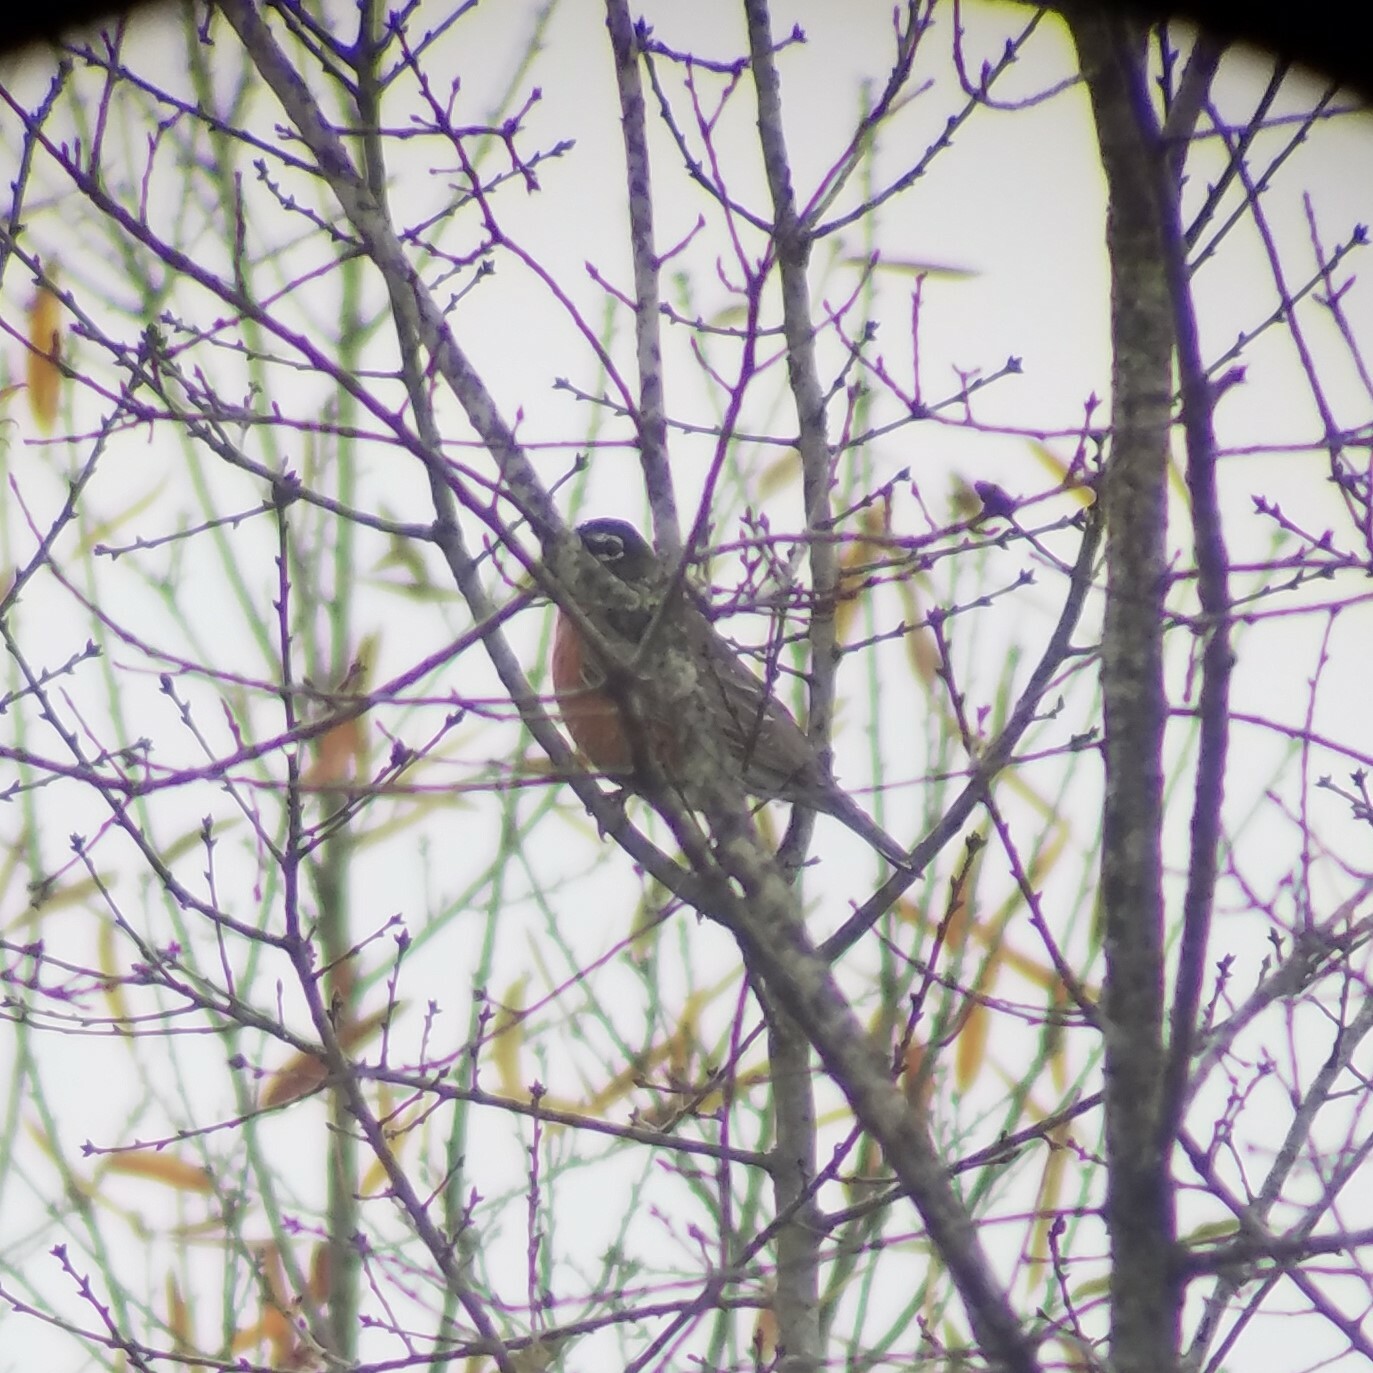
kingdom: Animalia
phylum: Chordata
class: Aves
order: Passeriformes
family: Turdidae
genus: Turdus
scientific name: Turdus migratorius
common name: American robin
